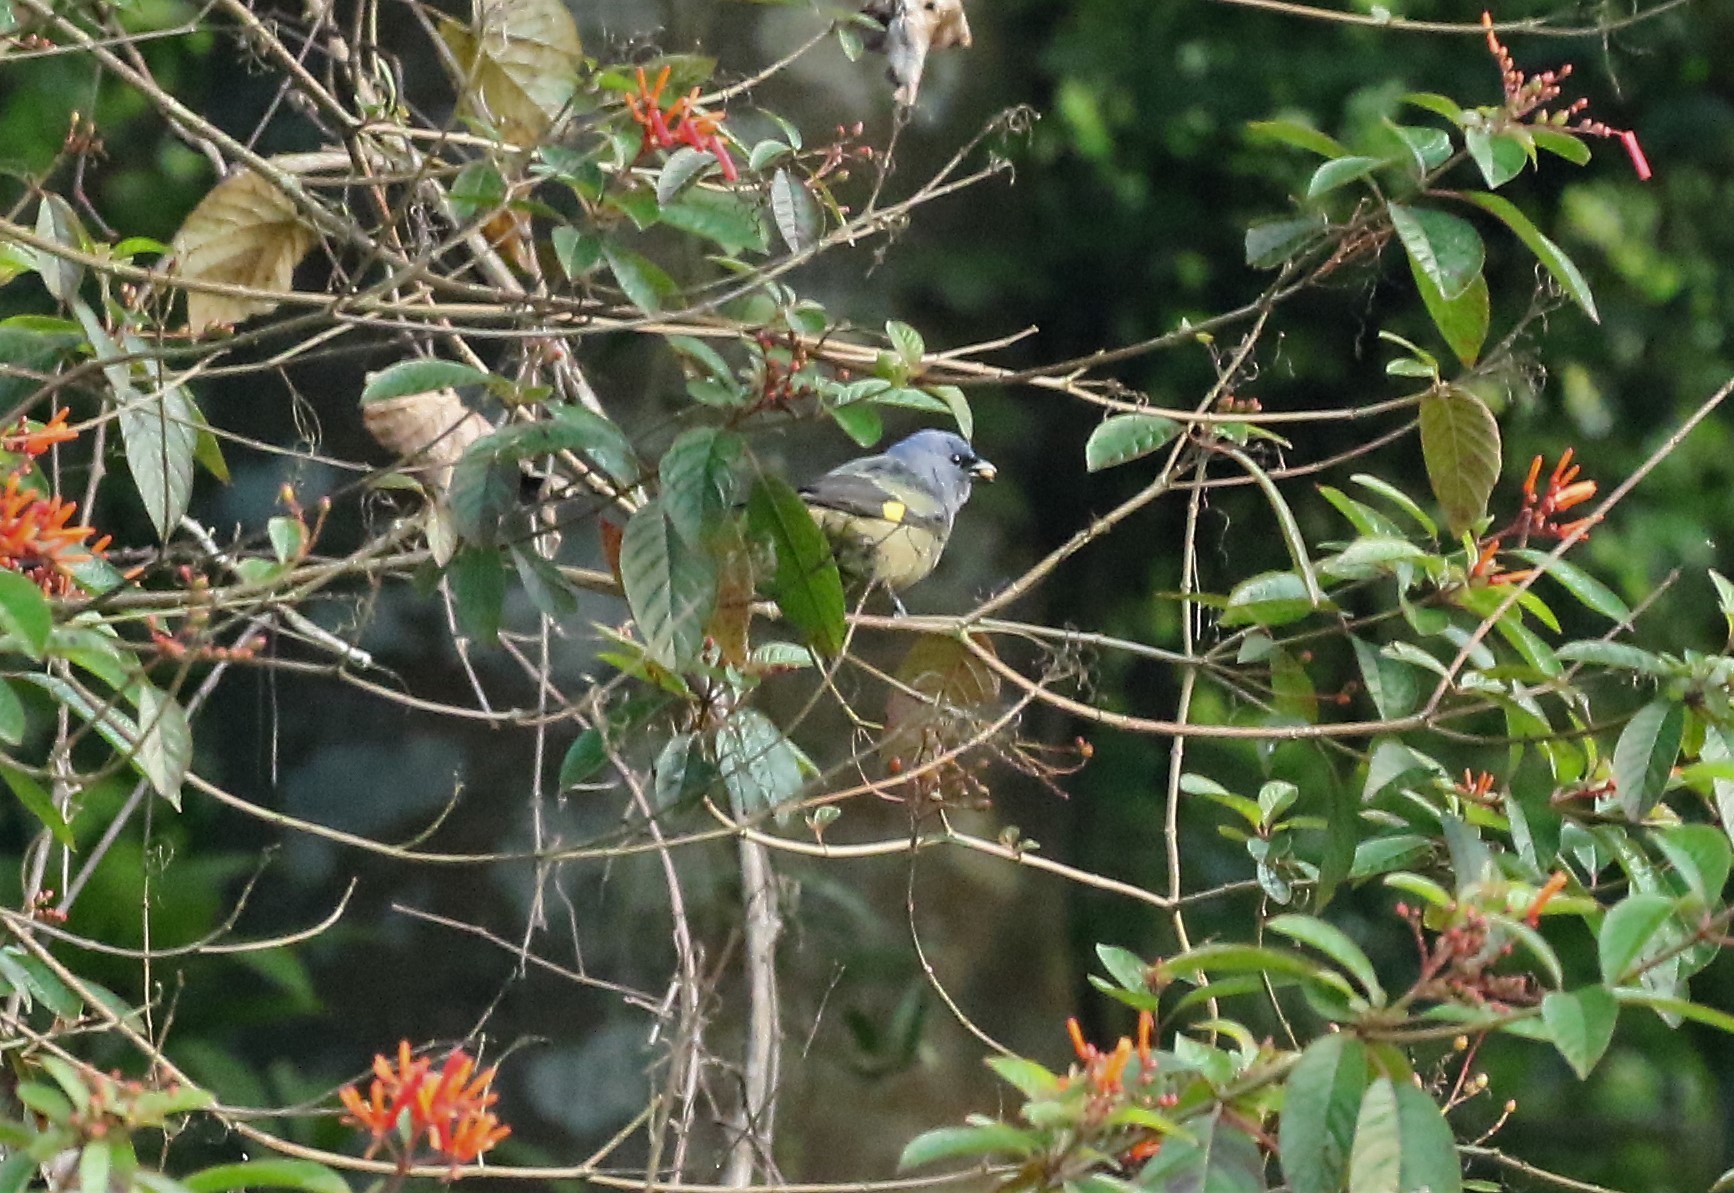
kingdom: Animalia
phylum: Chordata
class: Aves
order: Passeriformes
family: Thraupidae
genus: Thraupis
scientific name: Thraupis abbas
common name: Yellow-winged tanager
